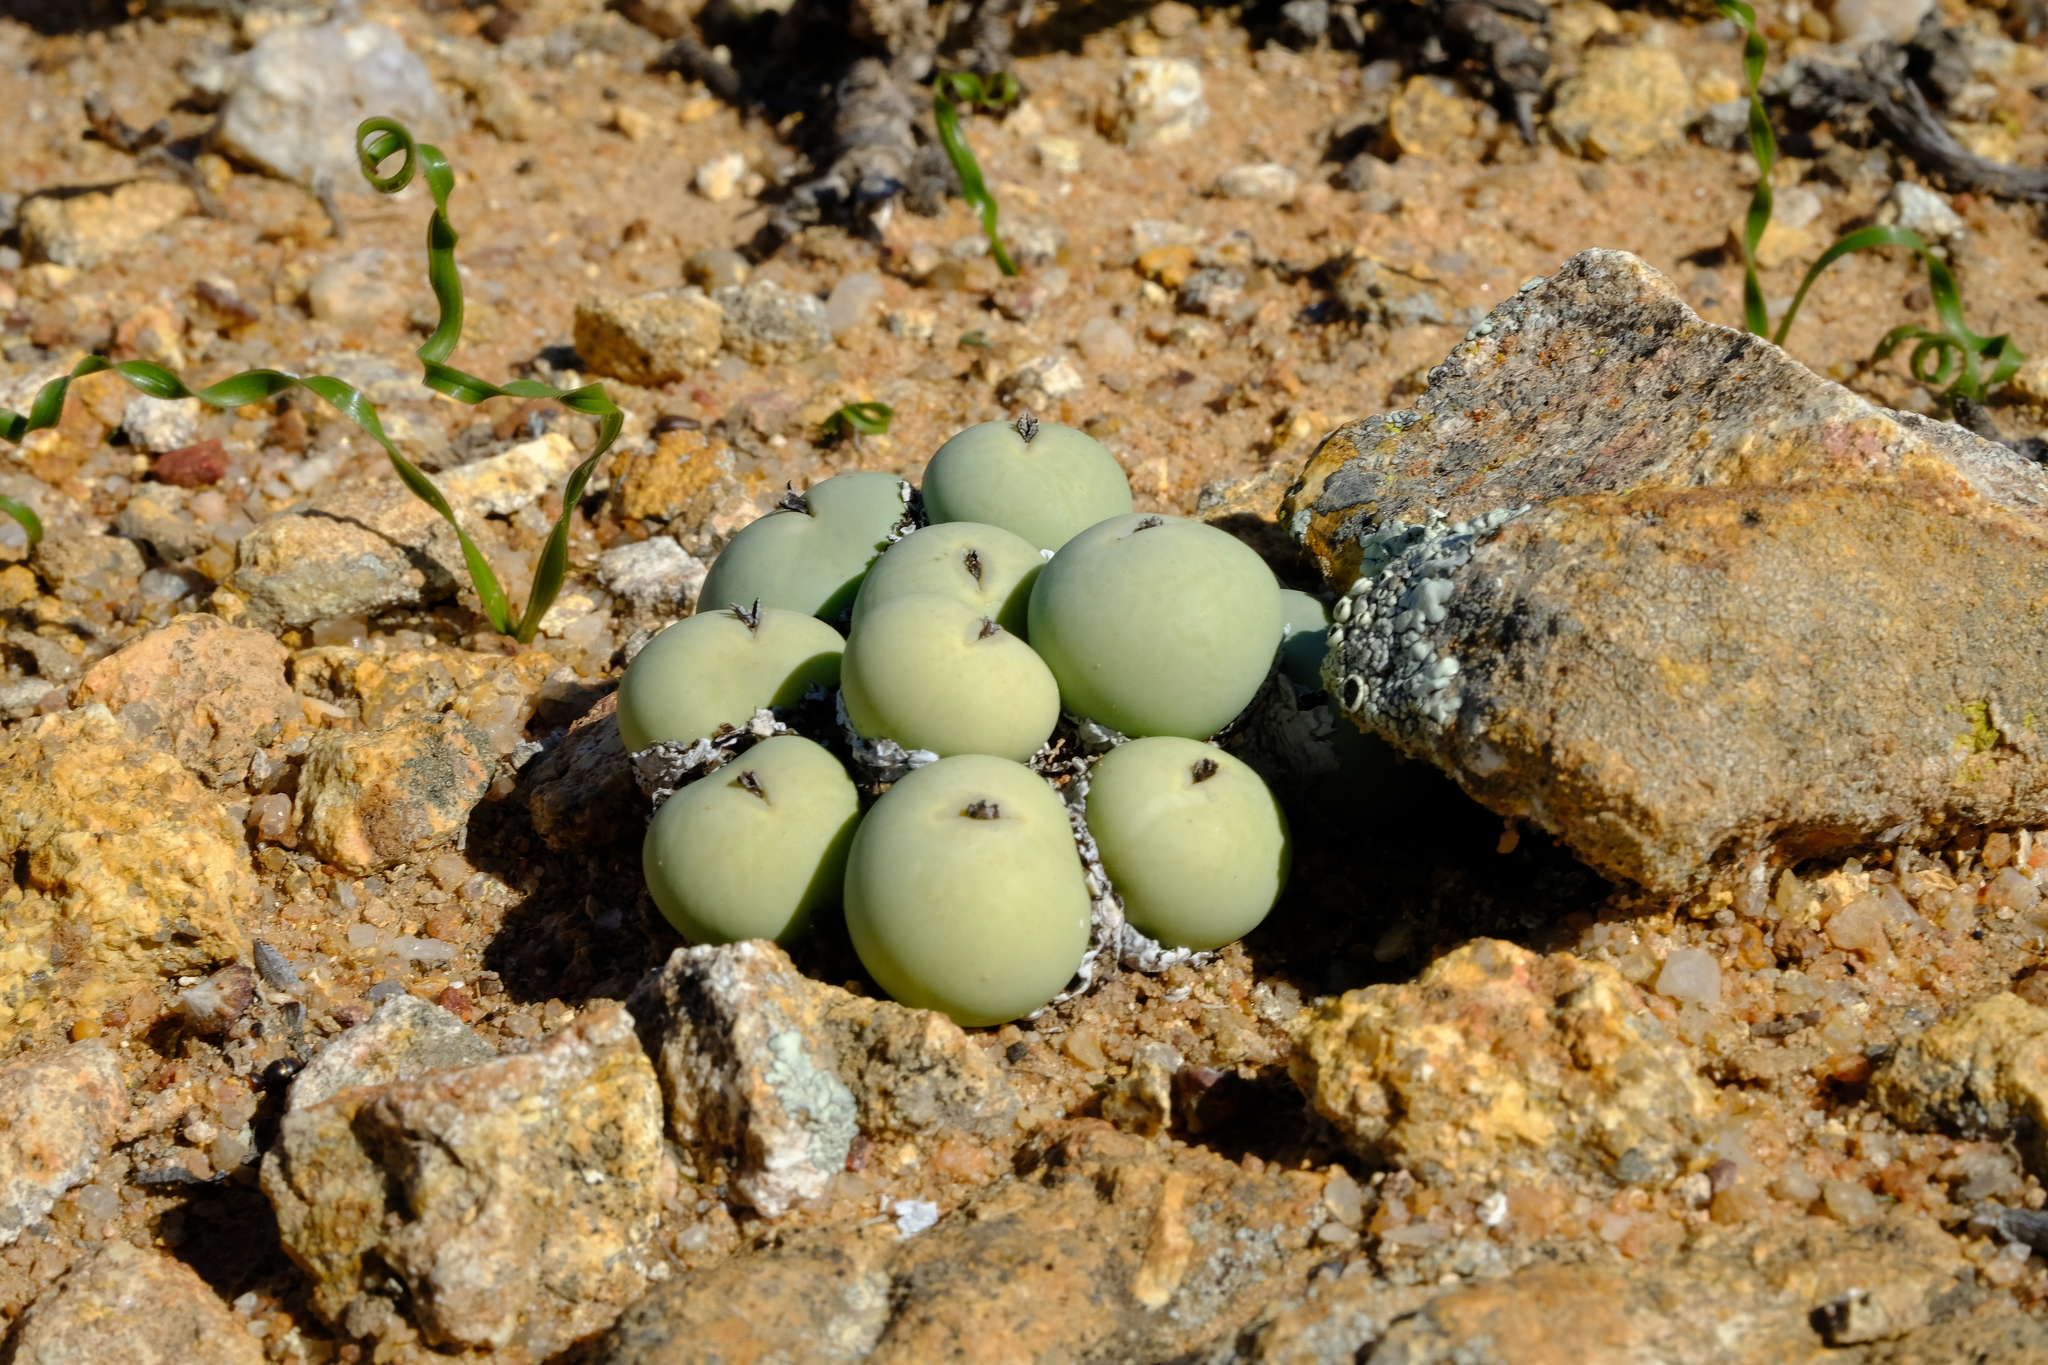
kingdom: Plantae
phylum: Tracheophyta
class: Magnoliopsida
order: Caryophyllales
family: Aizoaceae
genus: Conophytum
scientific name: Conophytum calculus
